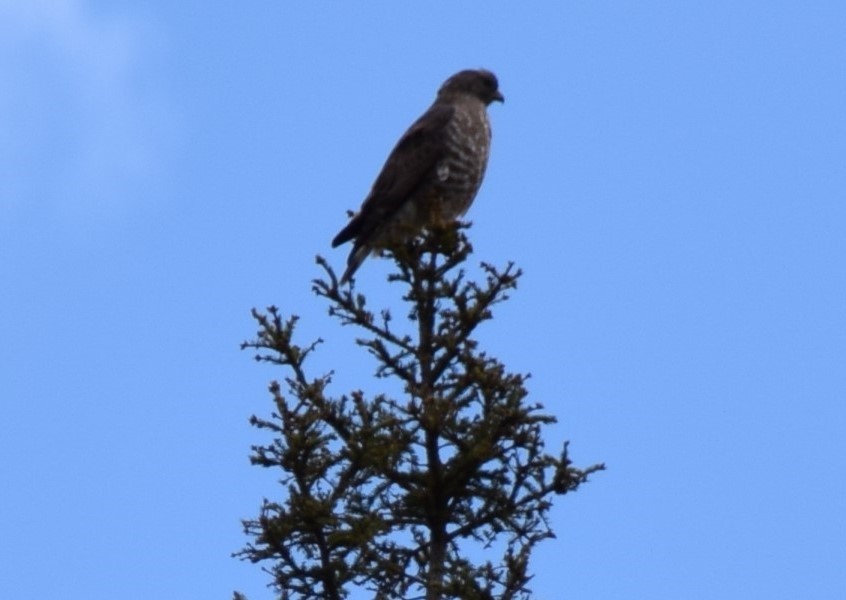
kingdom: Animalia
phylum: Chordata
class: Aves
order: Accipitriformes
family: Accipitridae
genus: Buteo
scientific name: Buteo platypterus
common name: Broad-winged hawk
